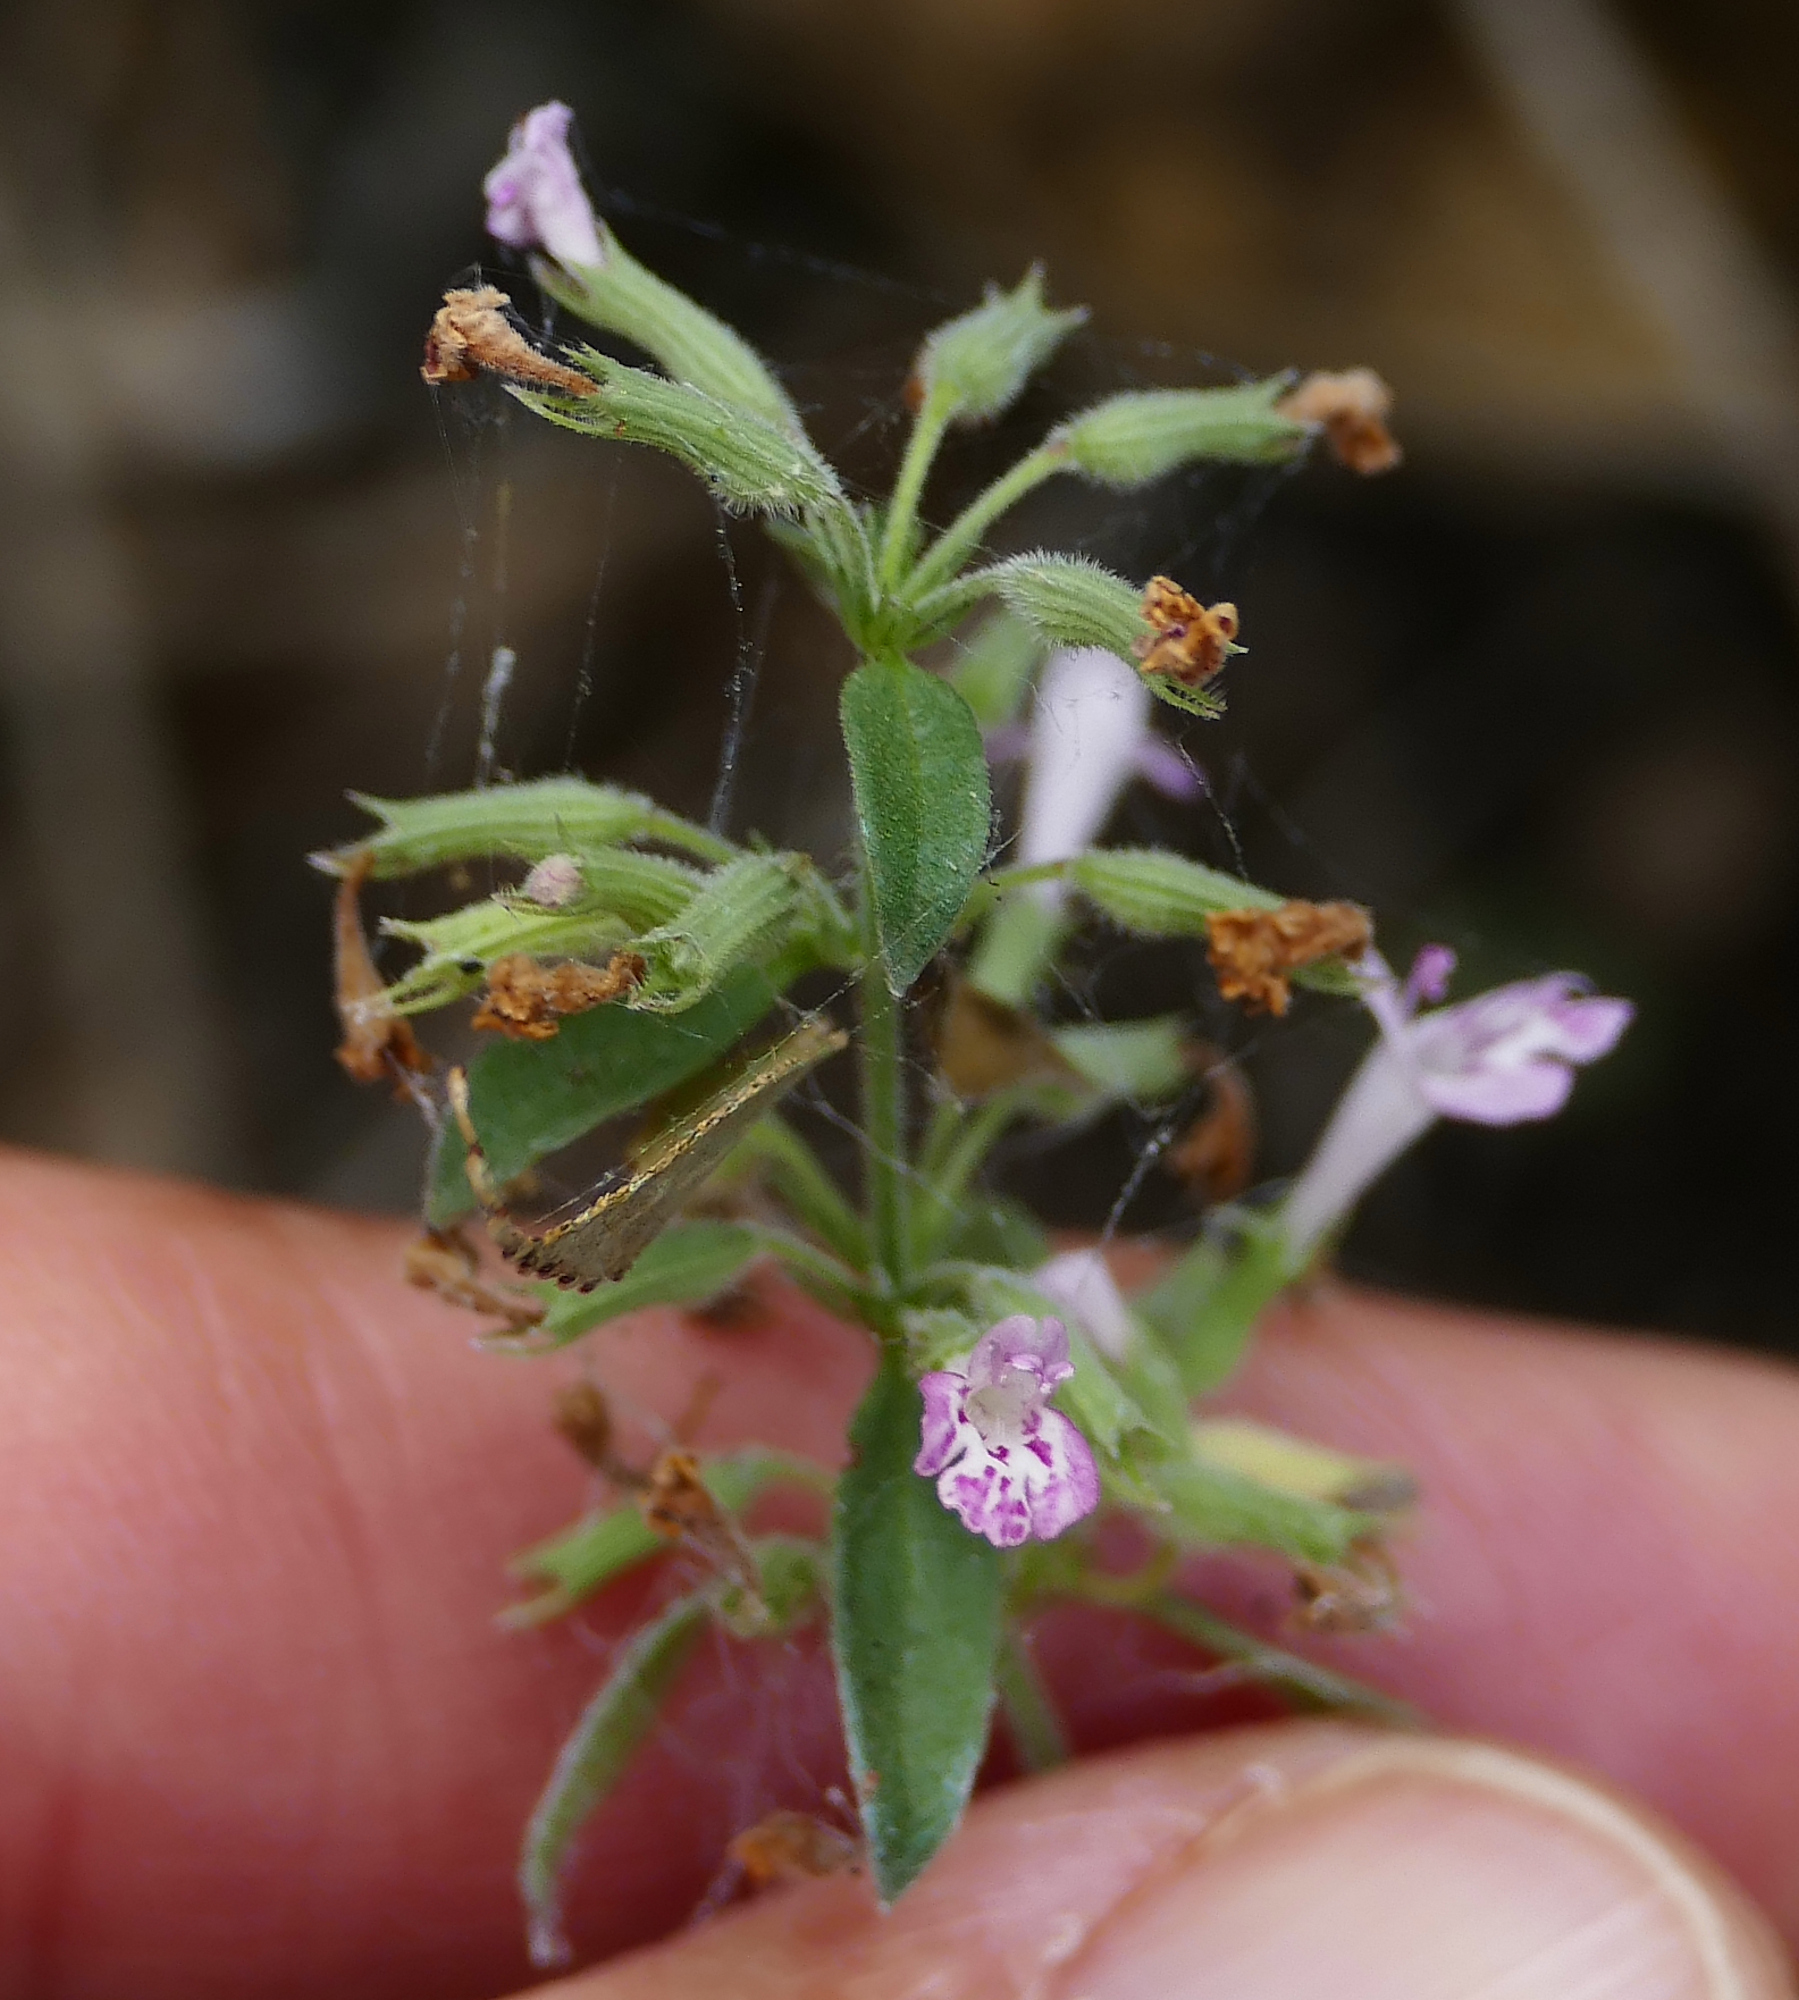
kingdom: Plantae
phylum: Tracheophyta
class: Magnoliopsida
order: Lamiales
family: Lamiaceae
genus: Hedeoma
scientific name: Hedeoma oblongifolia
